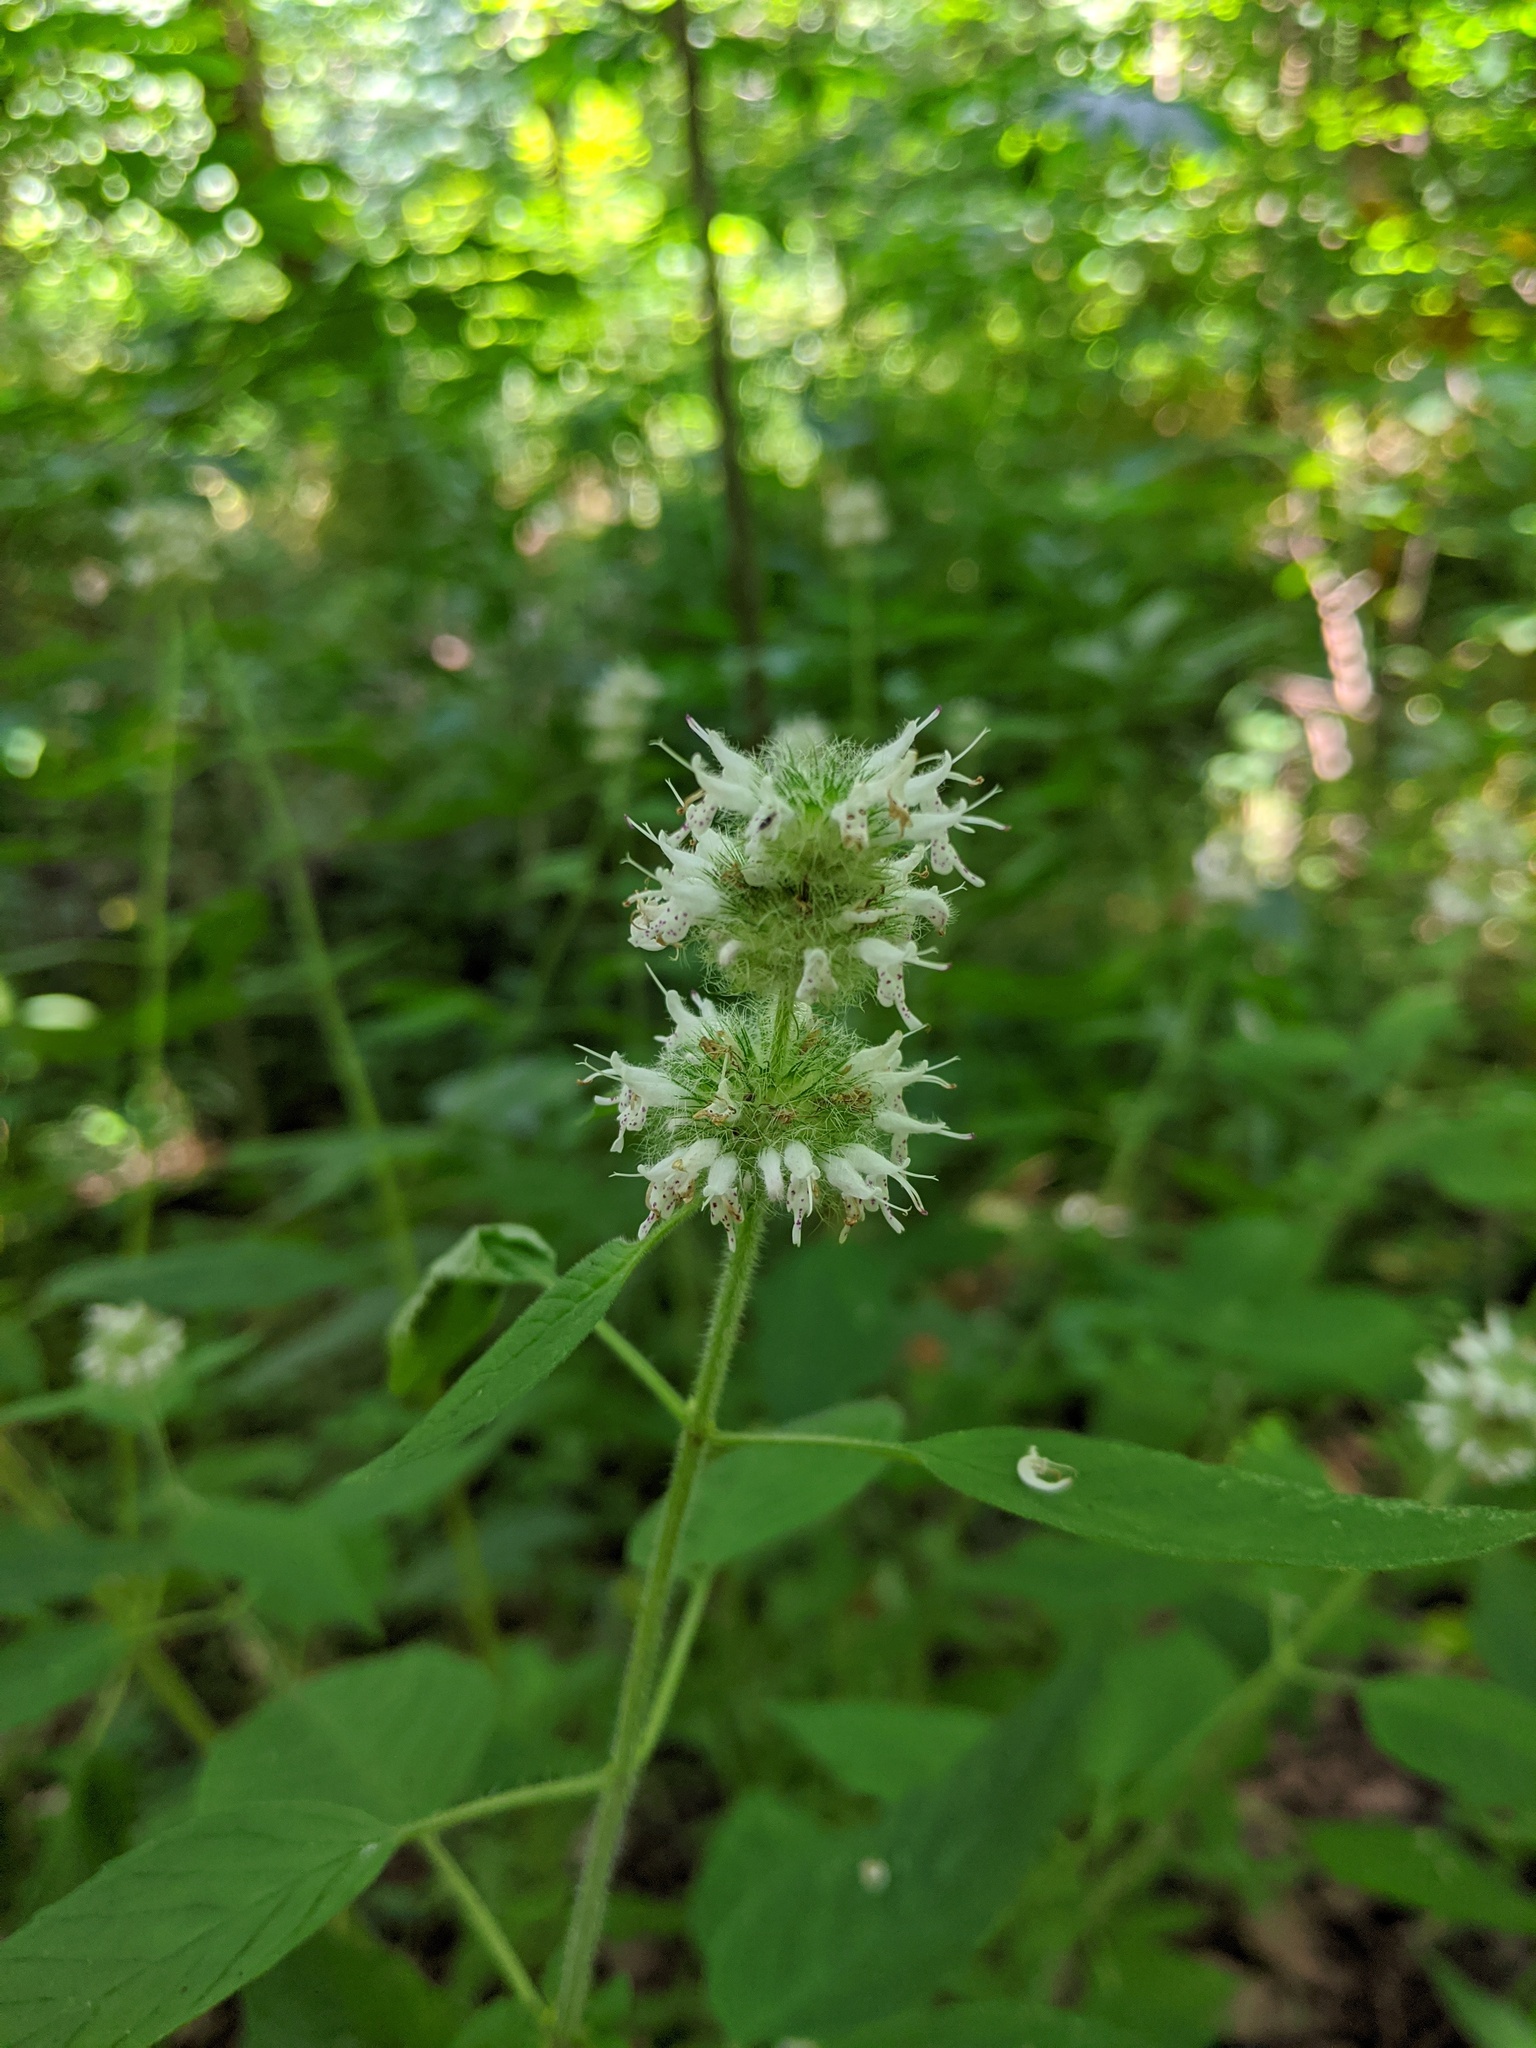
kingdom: Plantae
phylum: Tracheophyta
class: Magnoliopsida
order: Lamiales
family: Lamiaceae
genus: Blephilia
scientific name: Blephilia hirsuta
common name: Hairy blephilia
